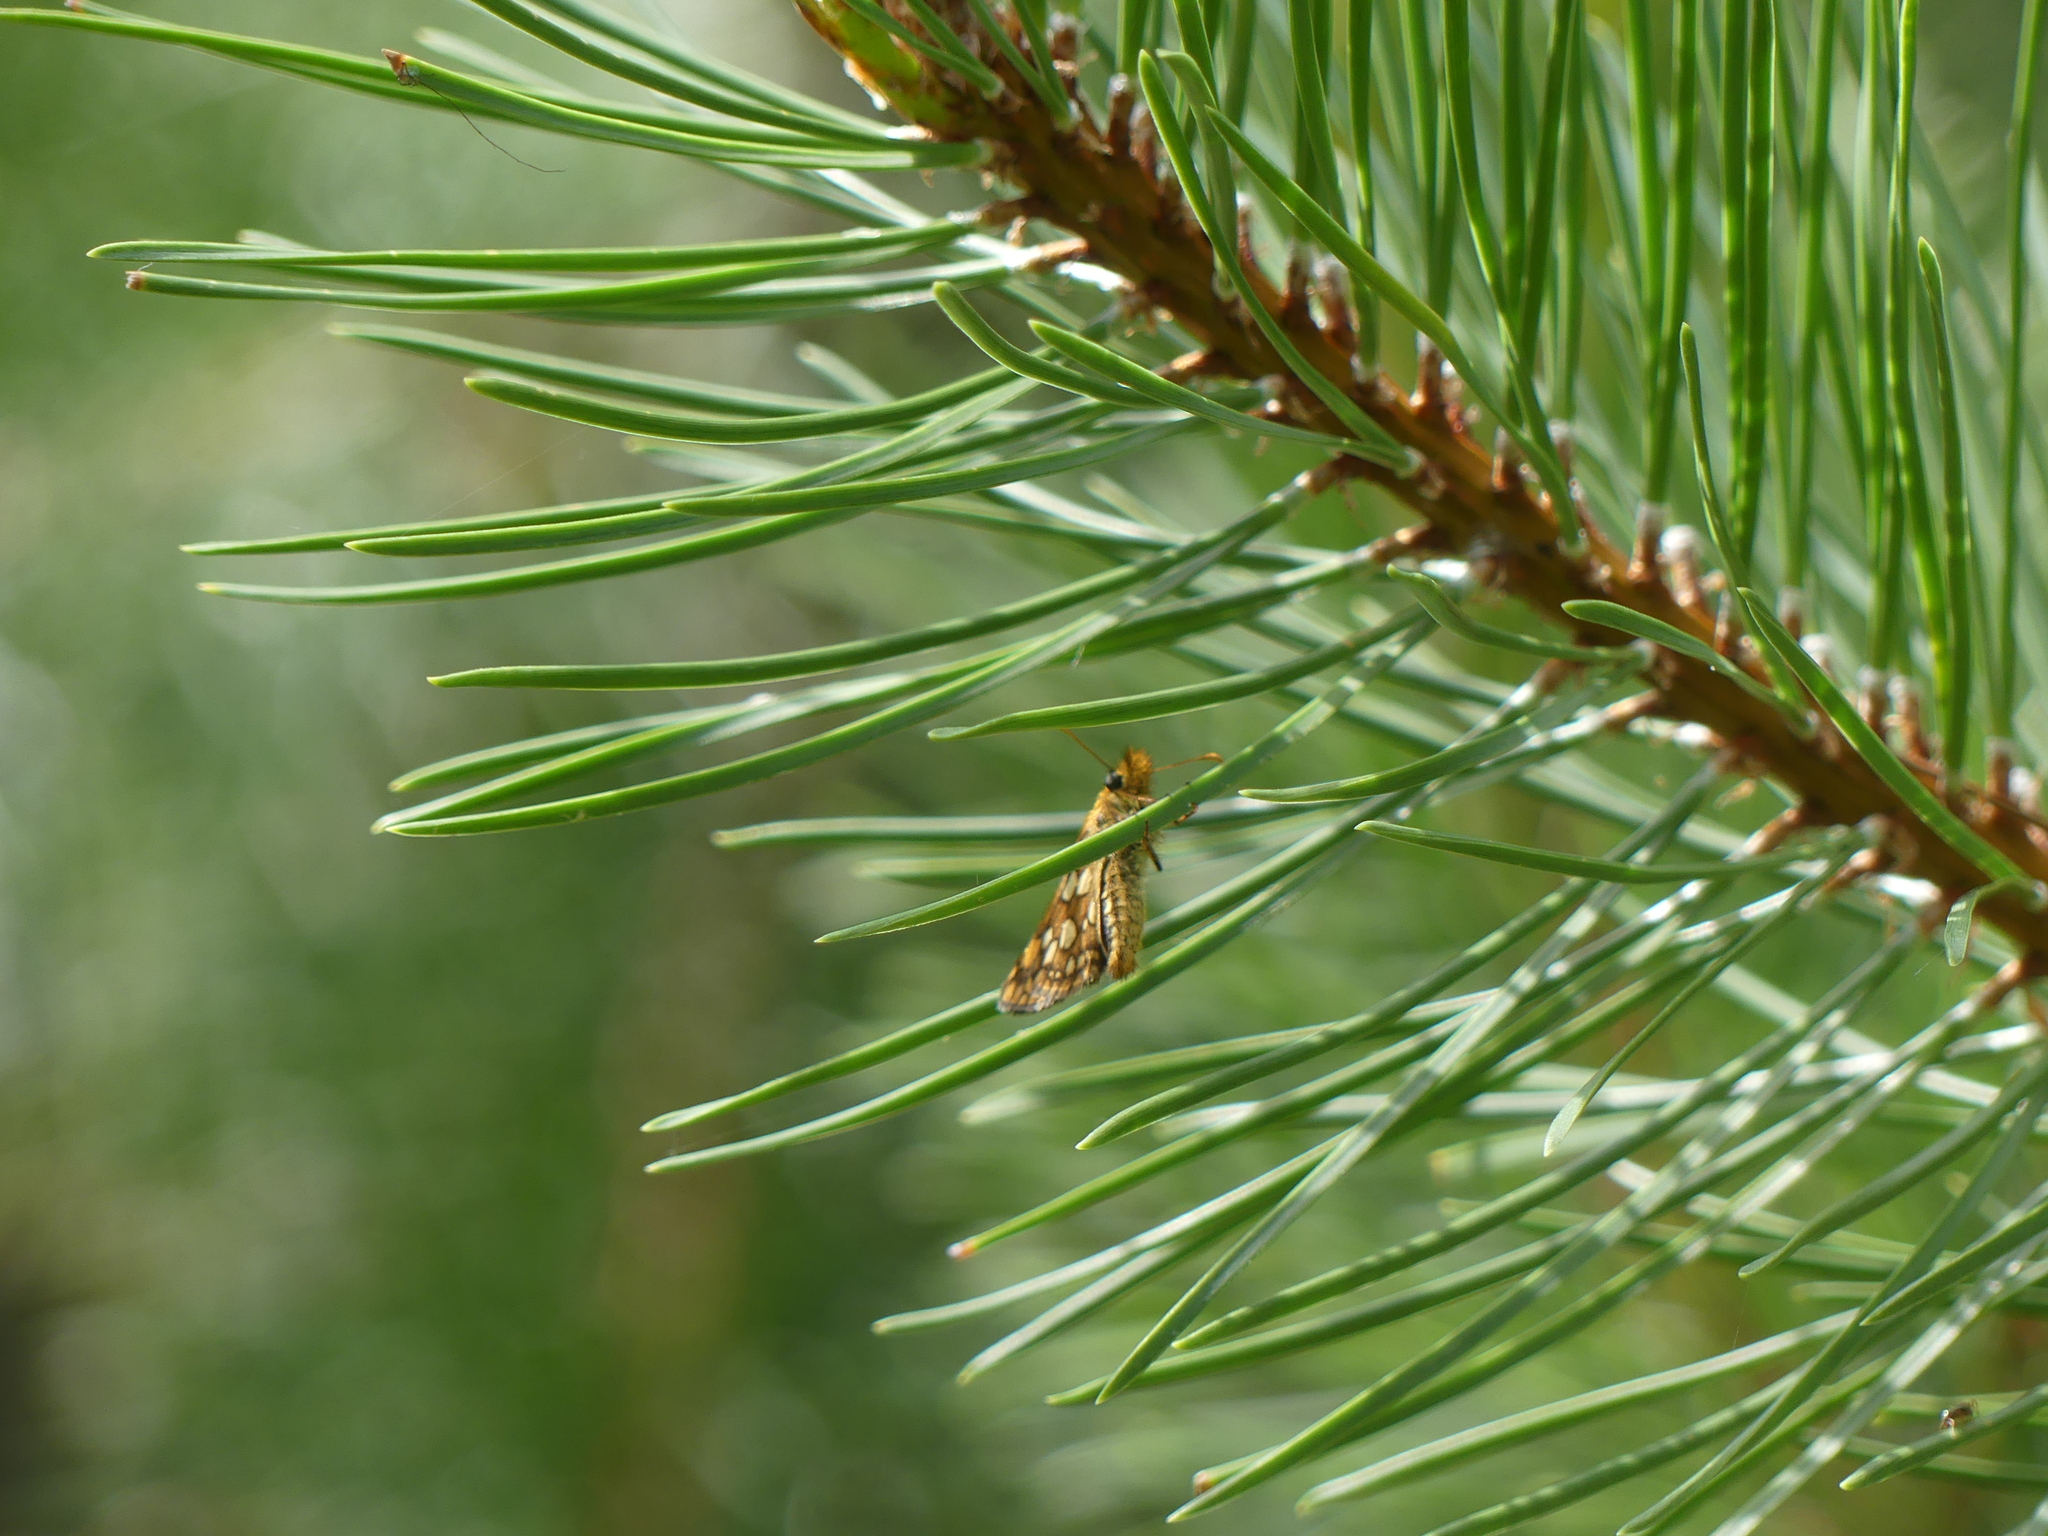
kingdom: Animalia
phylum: Arthropoda
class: Insecta
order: Lepidoptera
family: Hesperiidae
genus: Carterocephalus
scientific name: Carterocephalus skada
